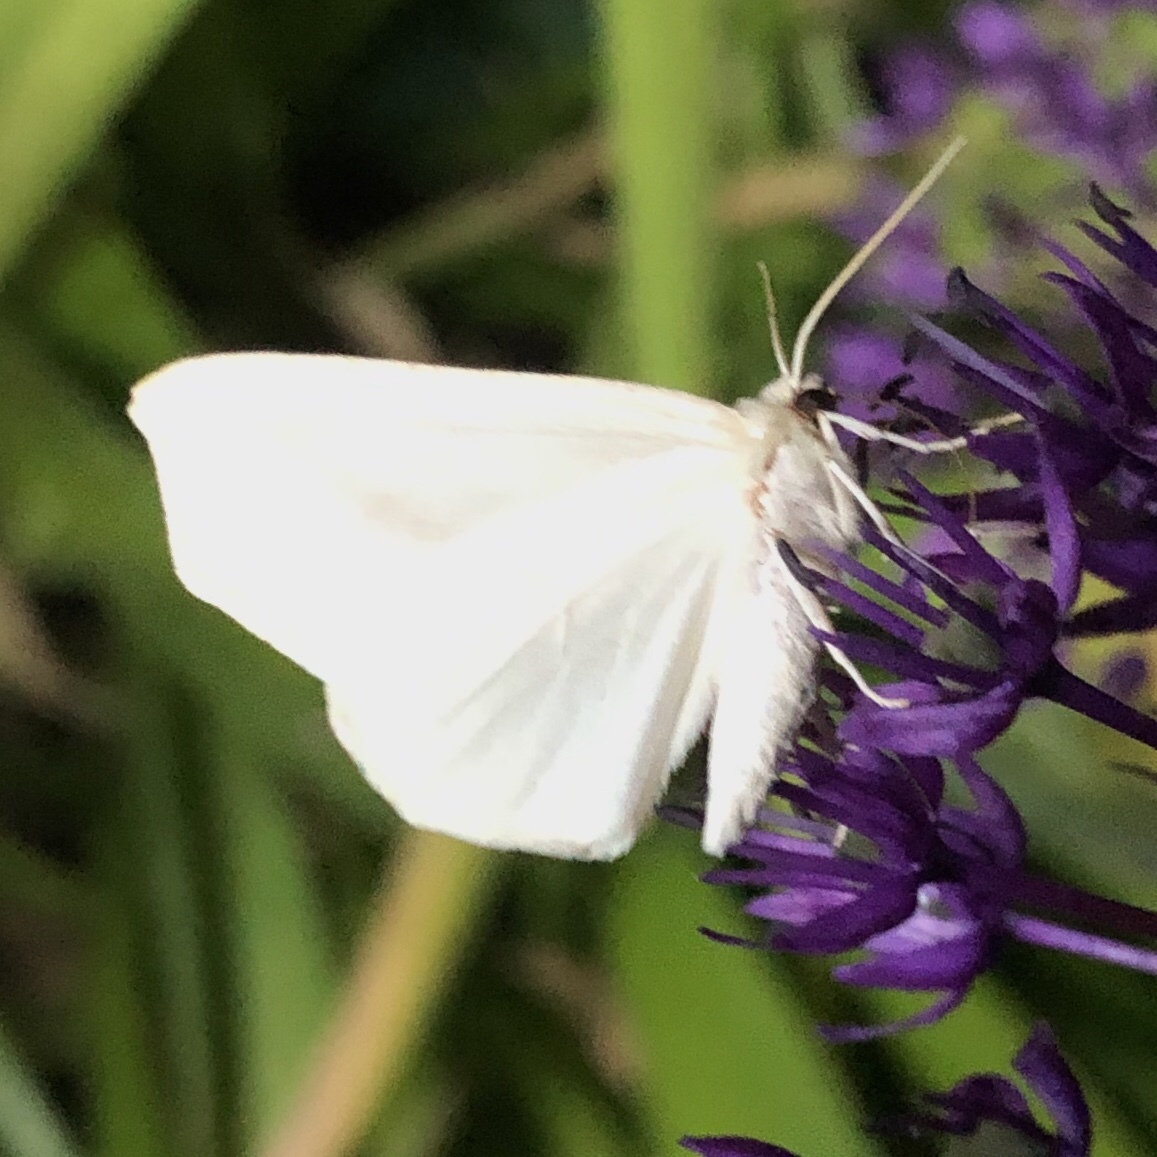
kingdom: Animalia
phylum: Arthropoda
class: Insecta
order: Lepidoptera
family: Geometridae
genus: Tetracis
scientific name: Tetracis cachexiata
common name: White slant-line
